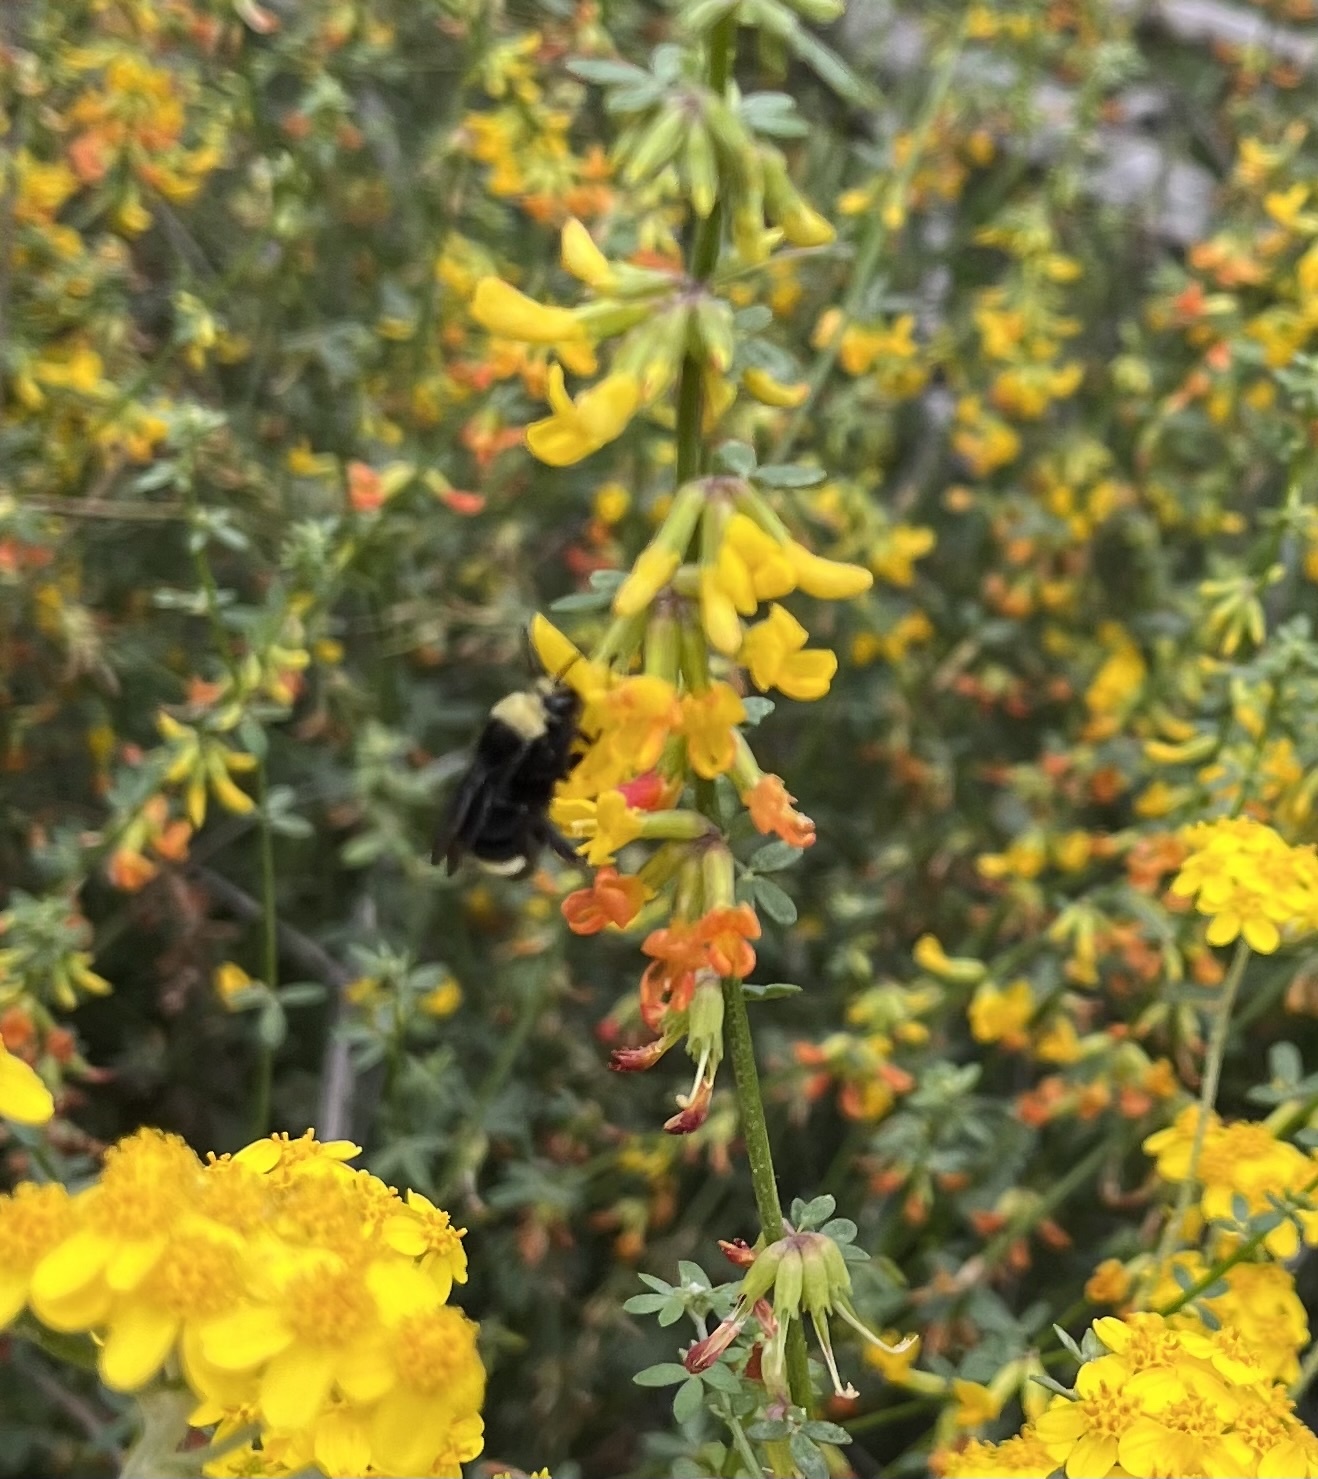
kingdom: Animalia
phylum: Arthropoda
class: Insecta
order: Hymenoptera
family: Apidae
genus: Bombus
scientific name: Bombus vosnesenskii
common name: Vosnesensky bumble bee
